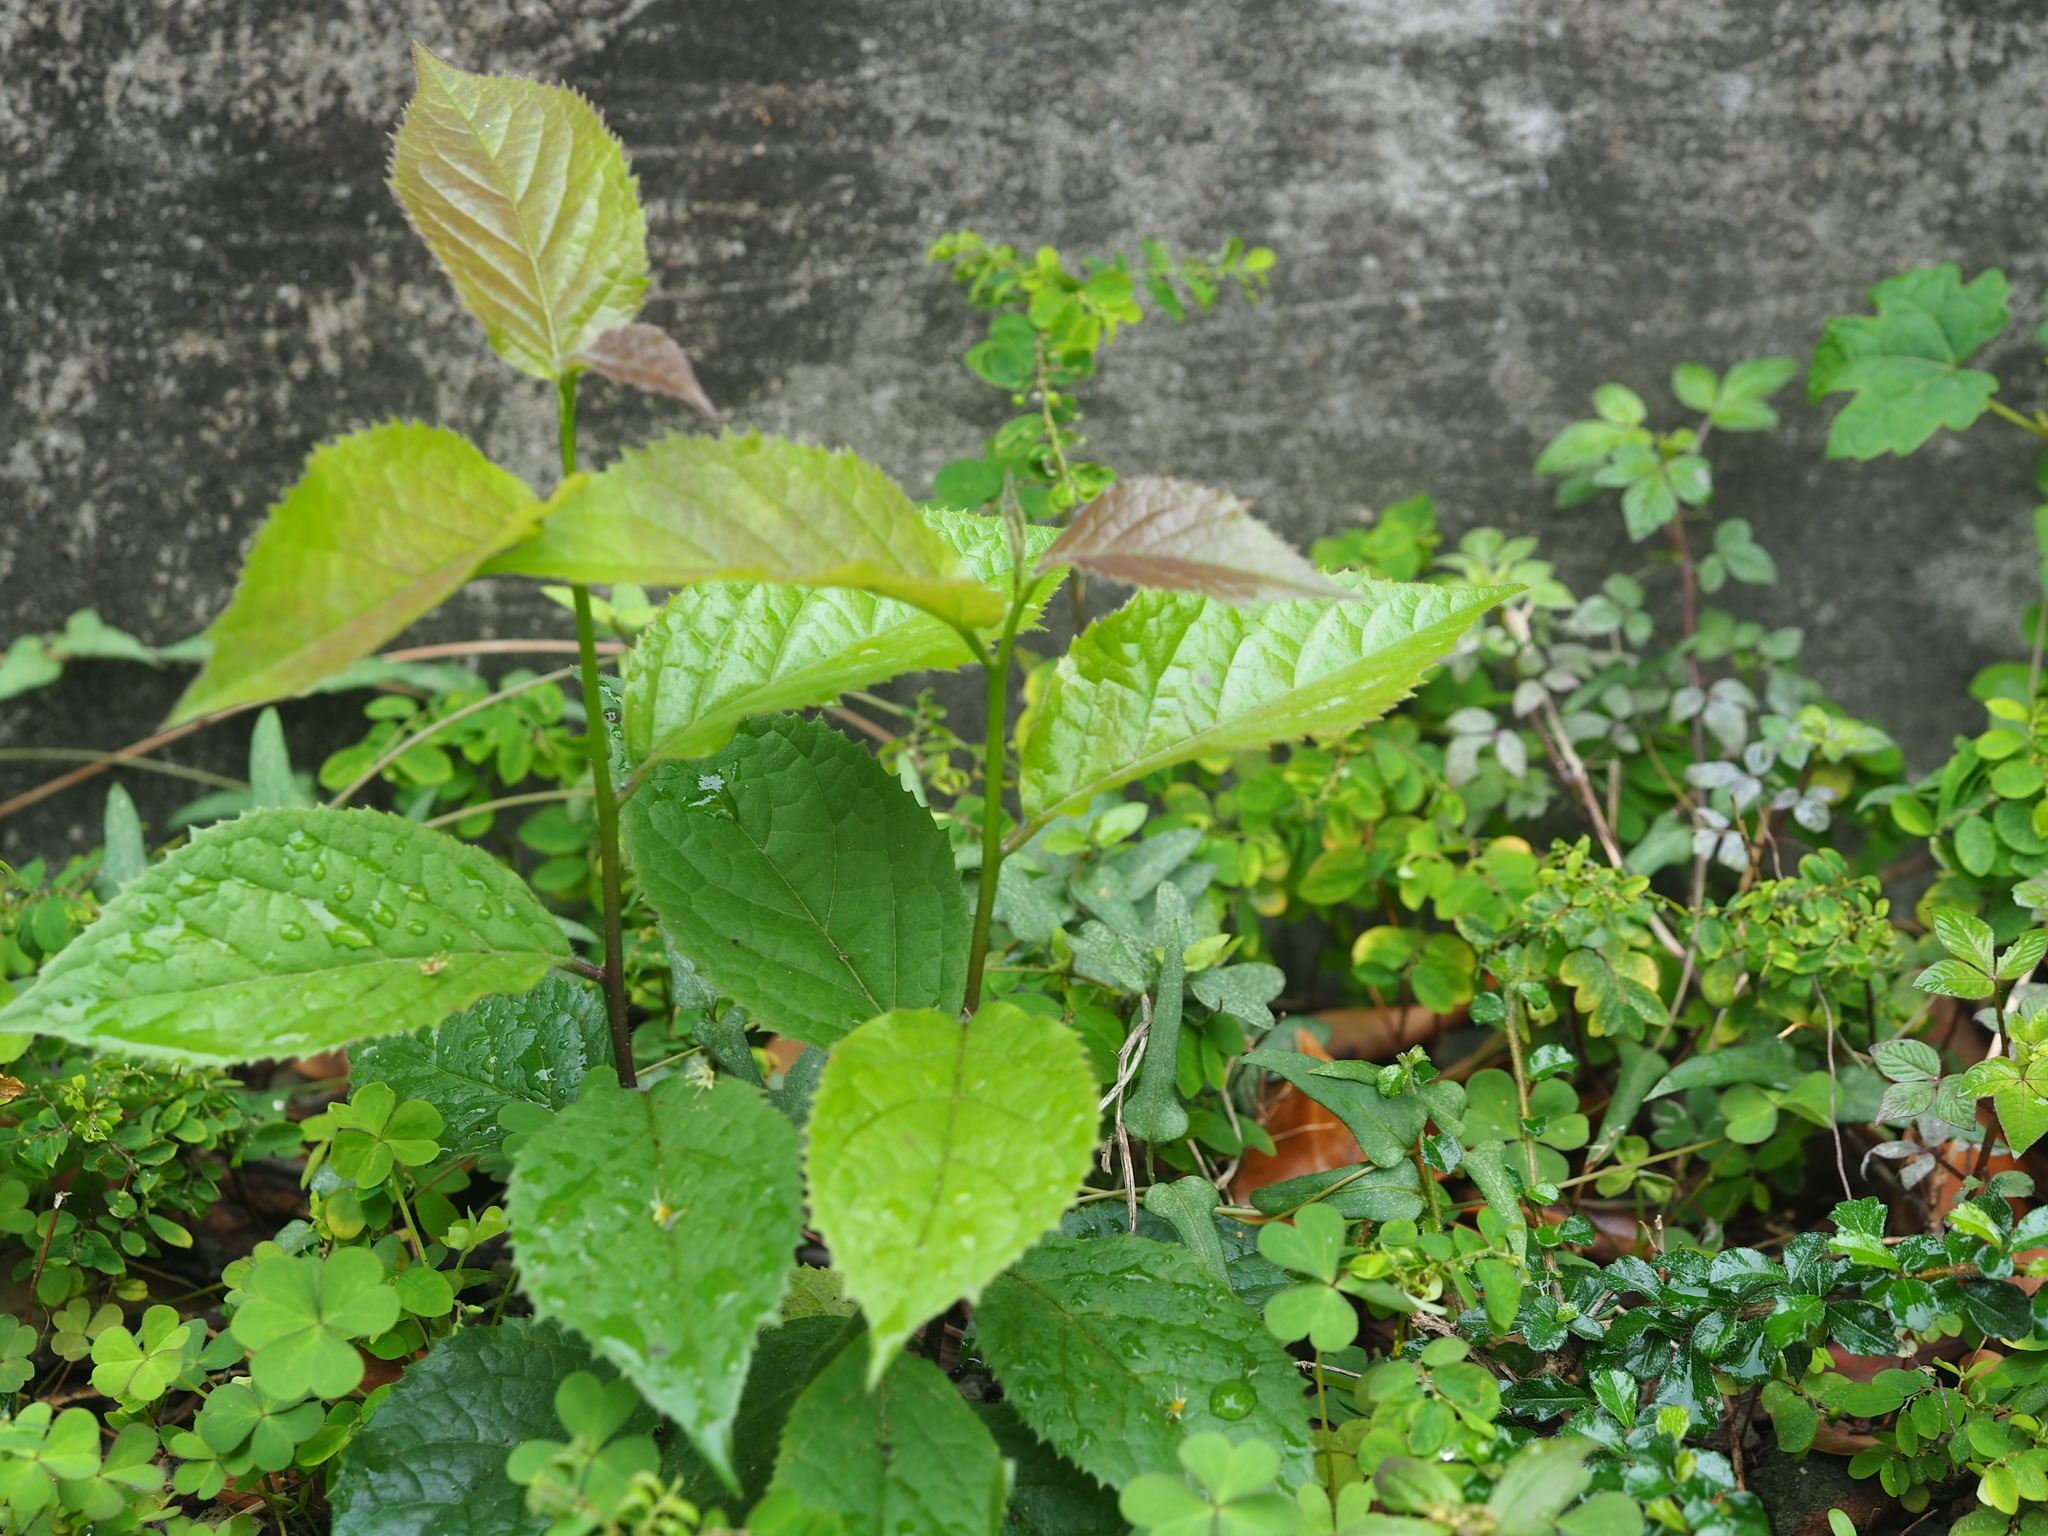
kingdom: Plantae
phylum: Tracheophyta
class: Magnoliopsida
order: Boraginales
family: Ehretiaceae
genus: Ehretia
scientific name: Ehretia resinosa
